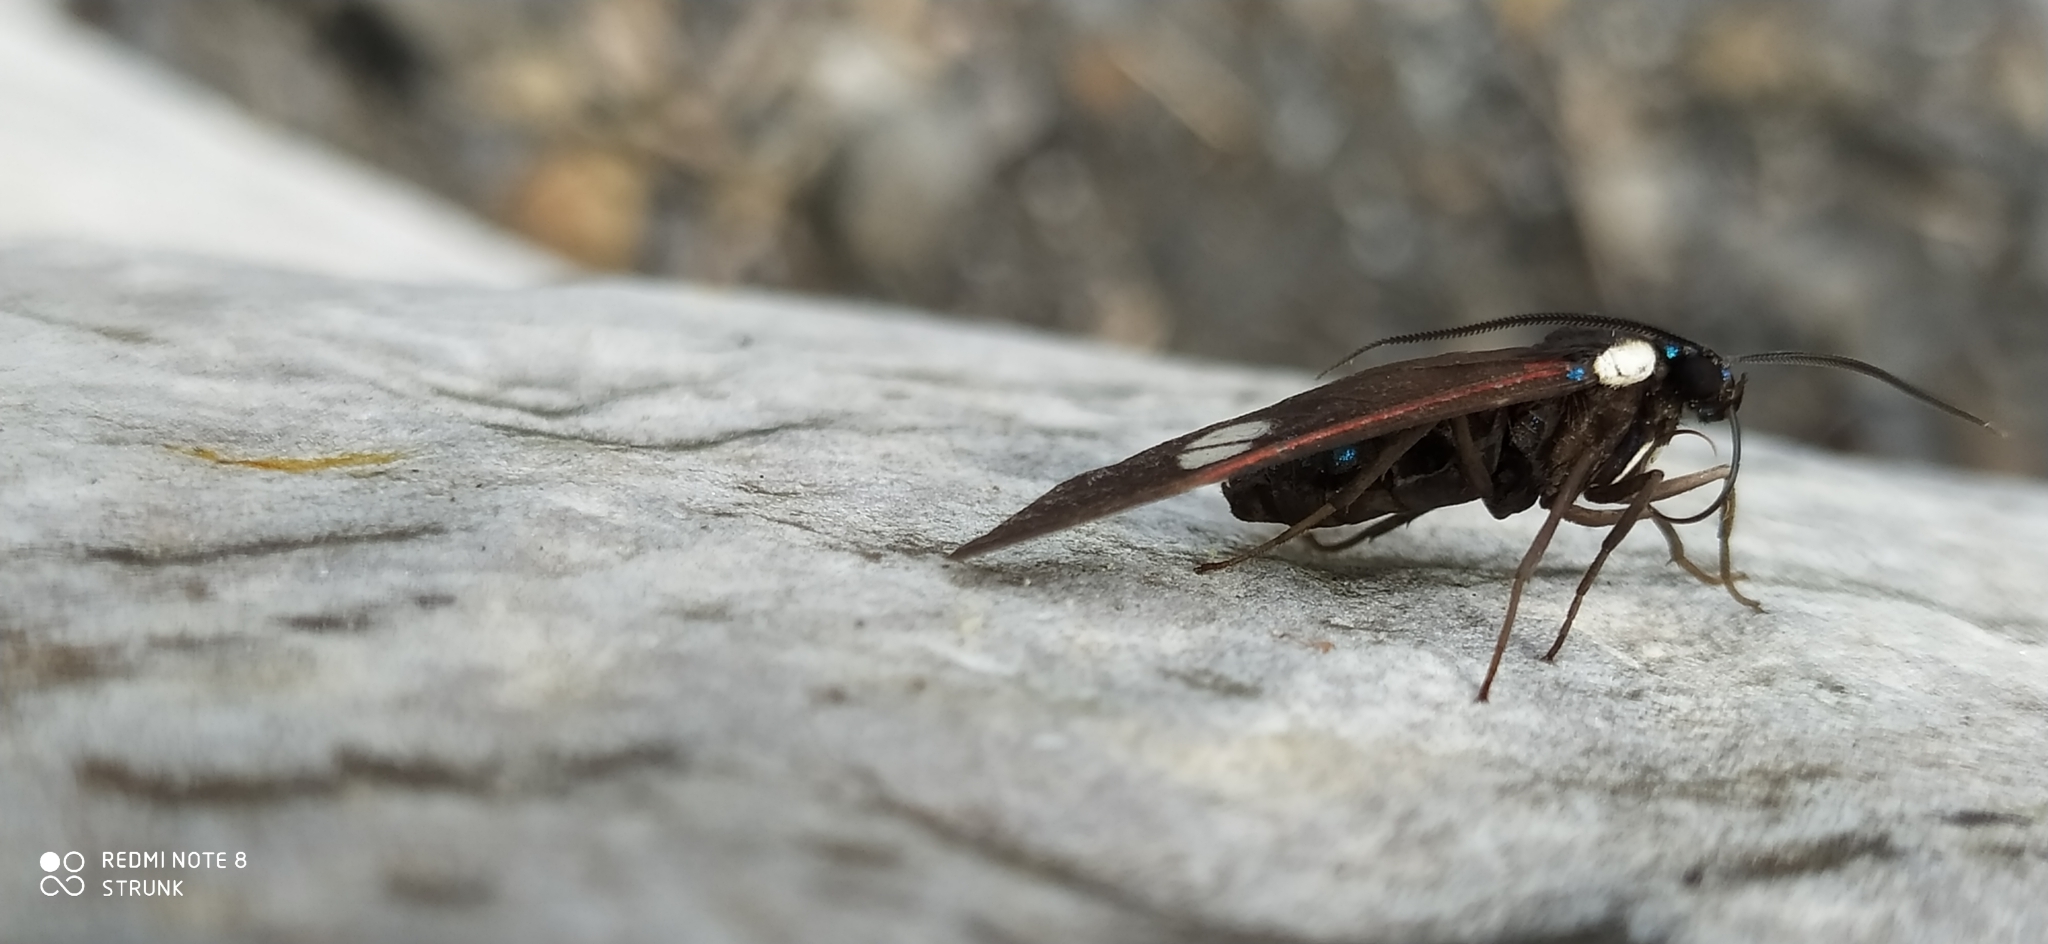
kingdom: Animalia
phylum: Arthropoda
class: Insecta
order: Lepidoptera
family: Erebidae
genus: Euclera
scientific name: Euclera meones
